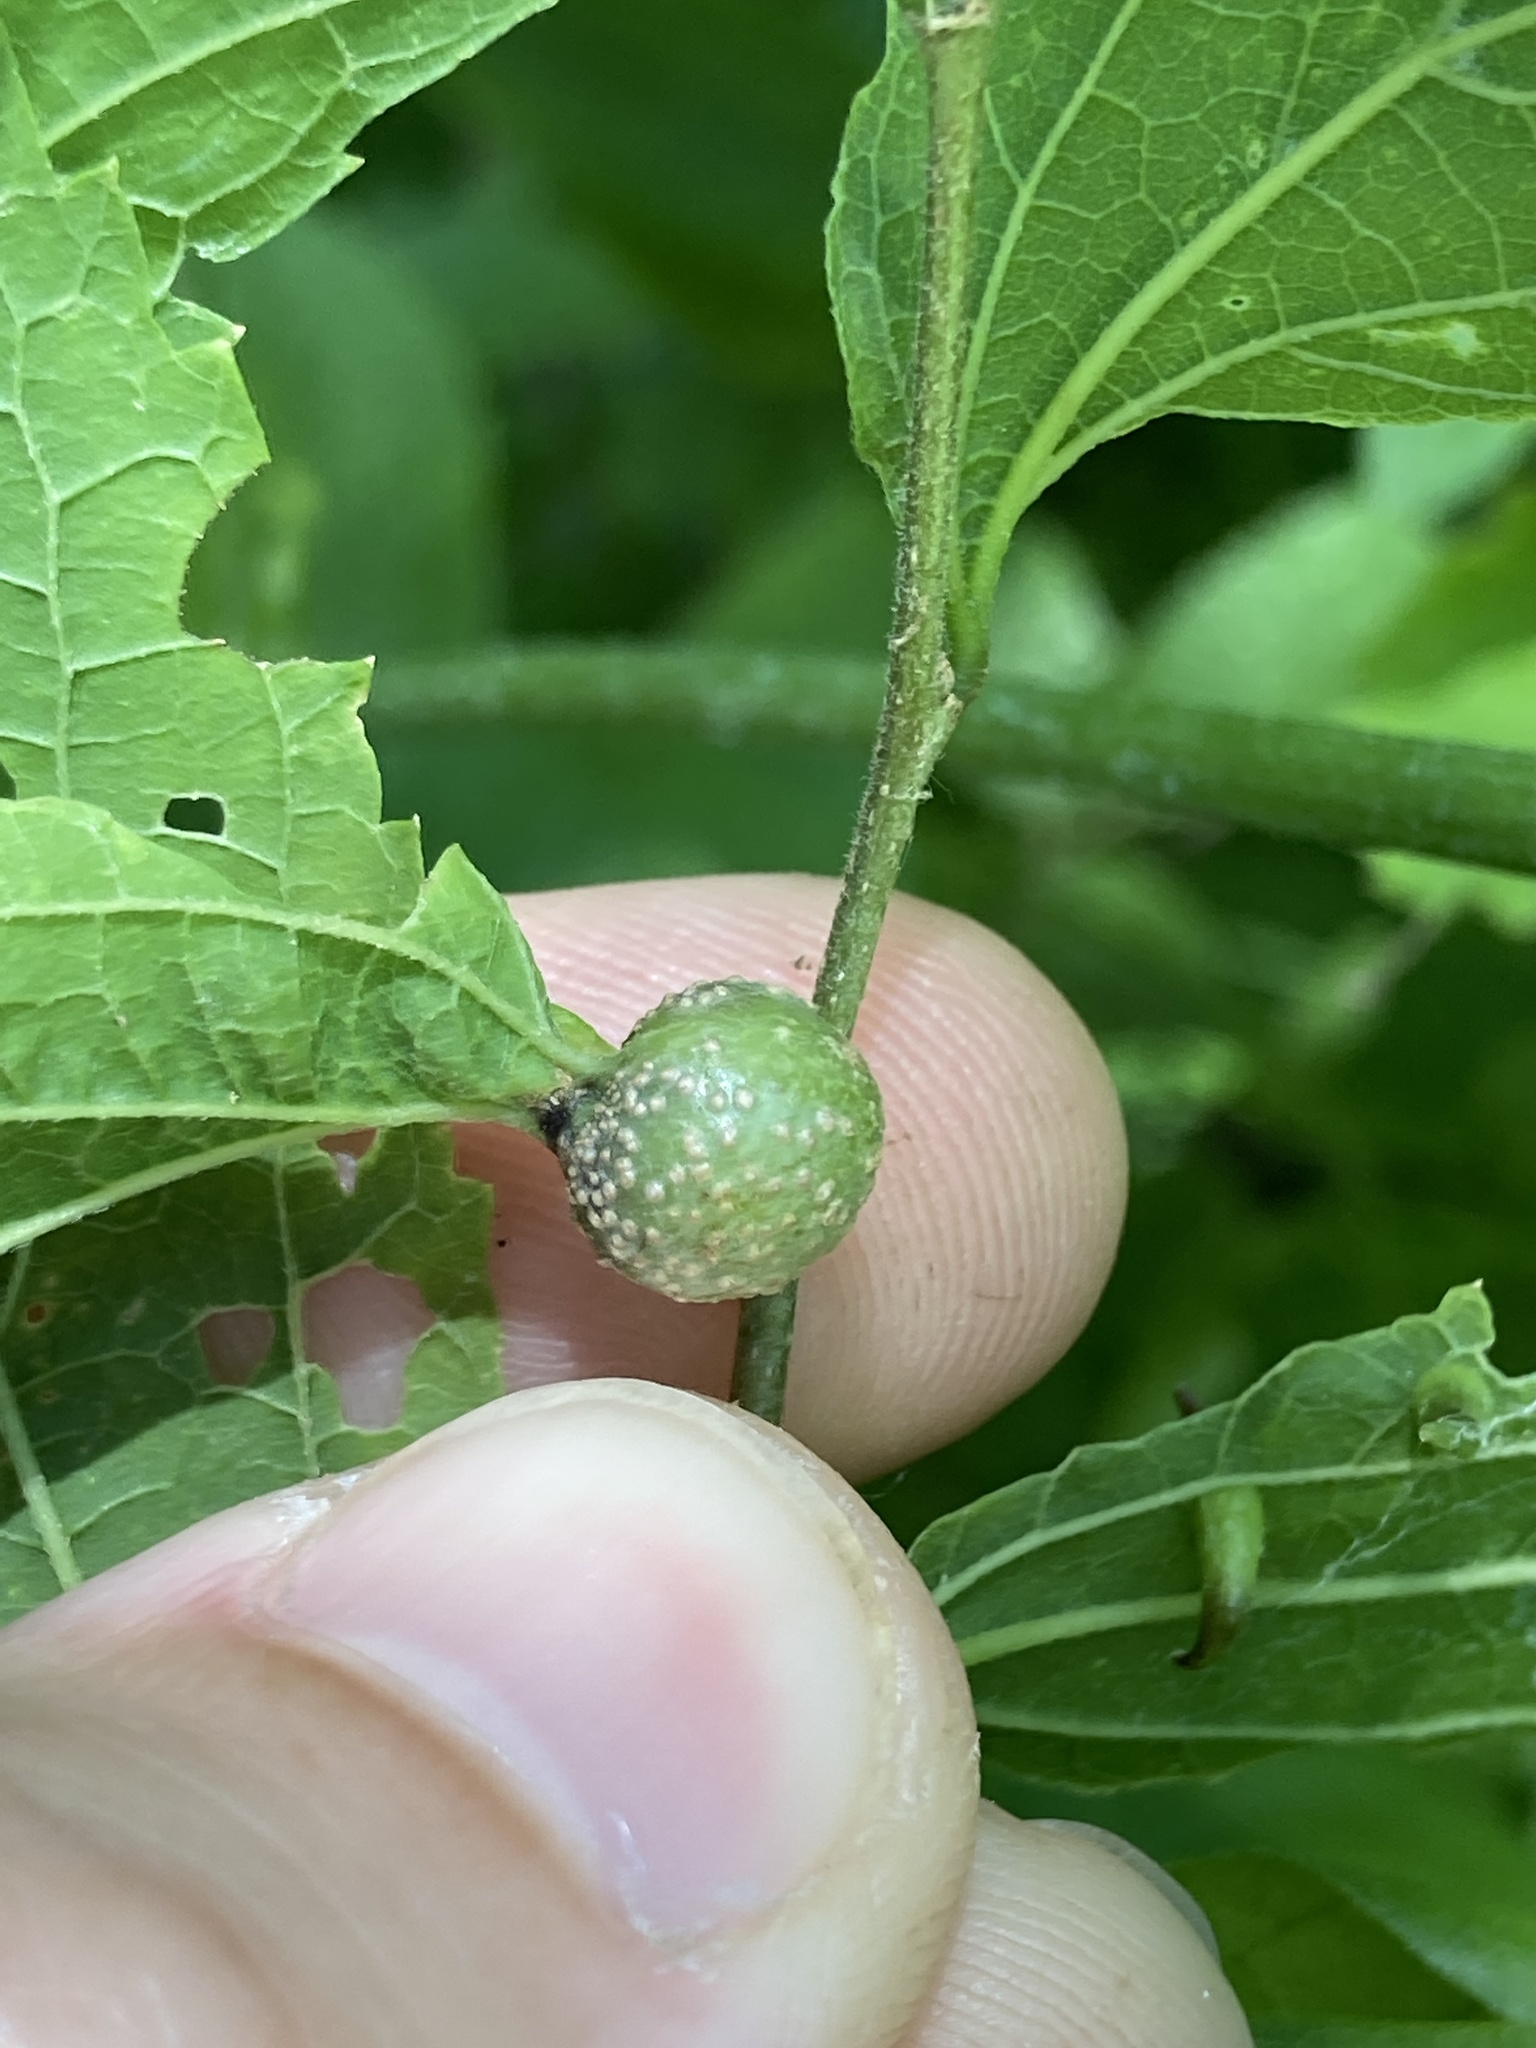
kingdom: Animalia
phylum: Arthropoda
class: Insecta
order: Hemiptera
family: Aphalaridae
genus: Pachypsylla
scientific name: Pachypsylla venusta
